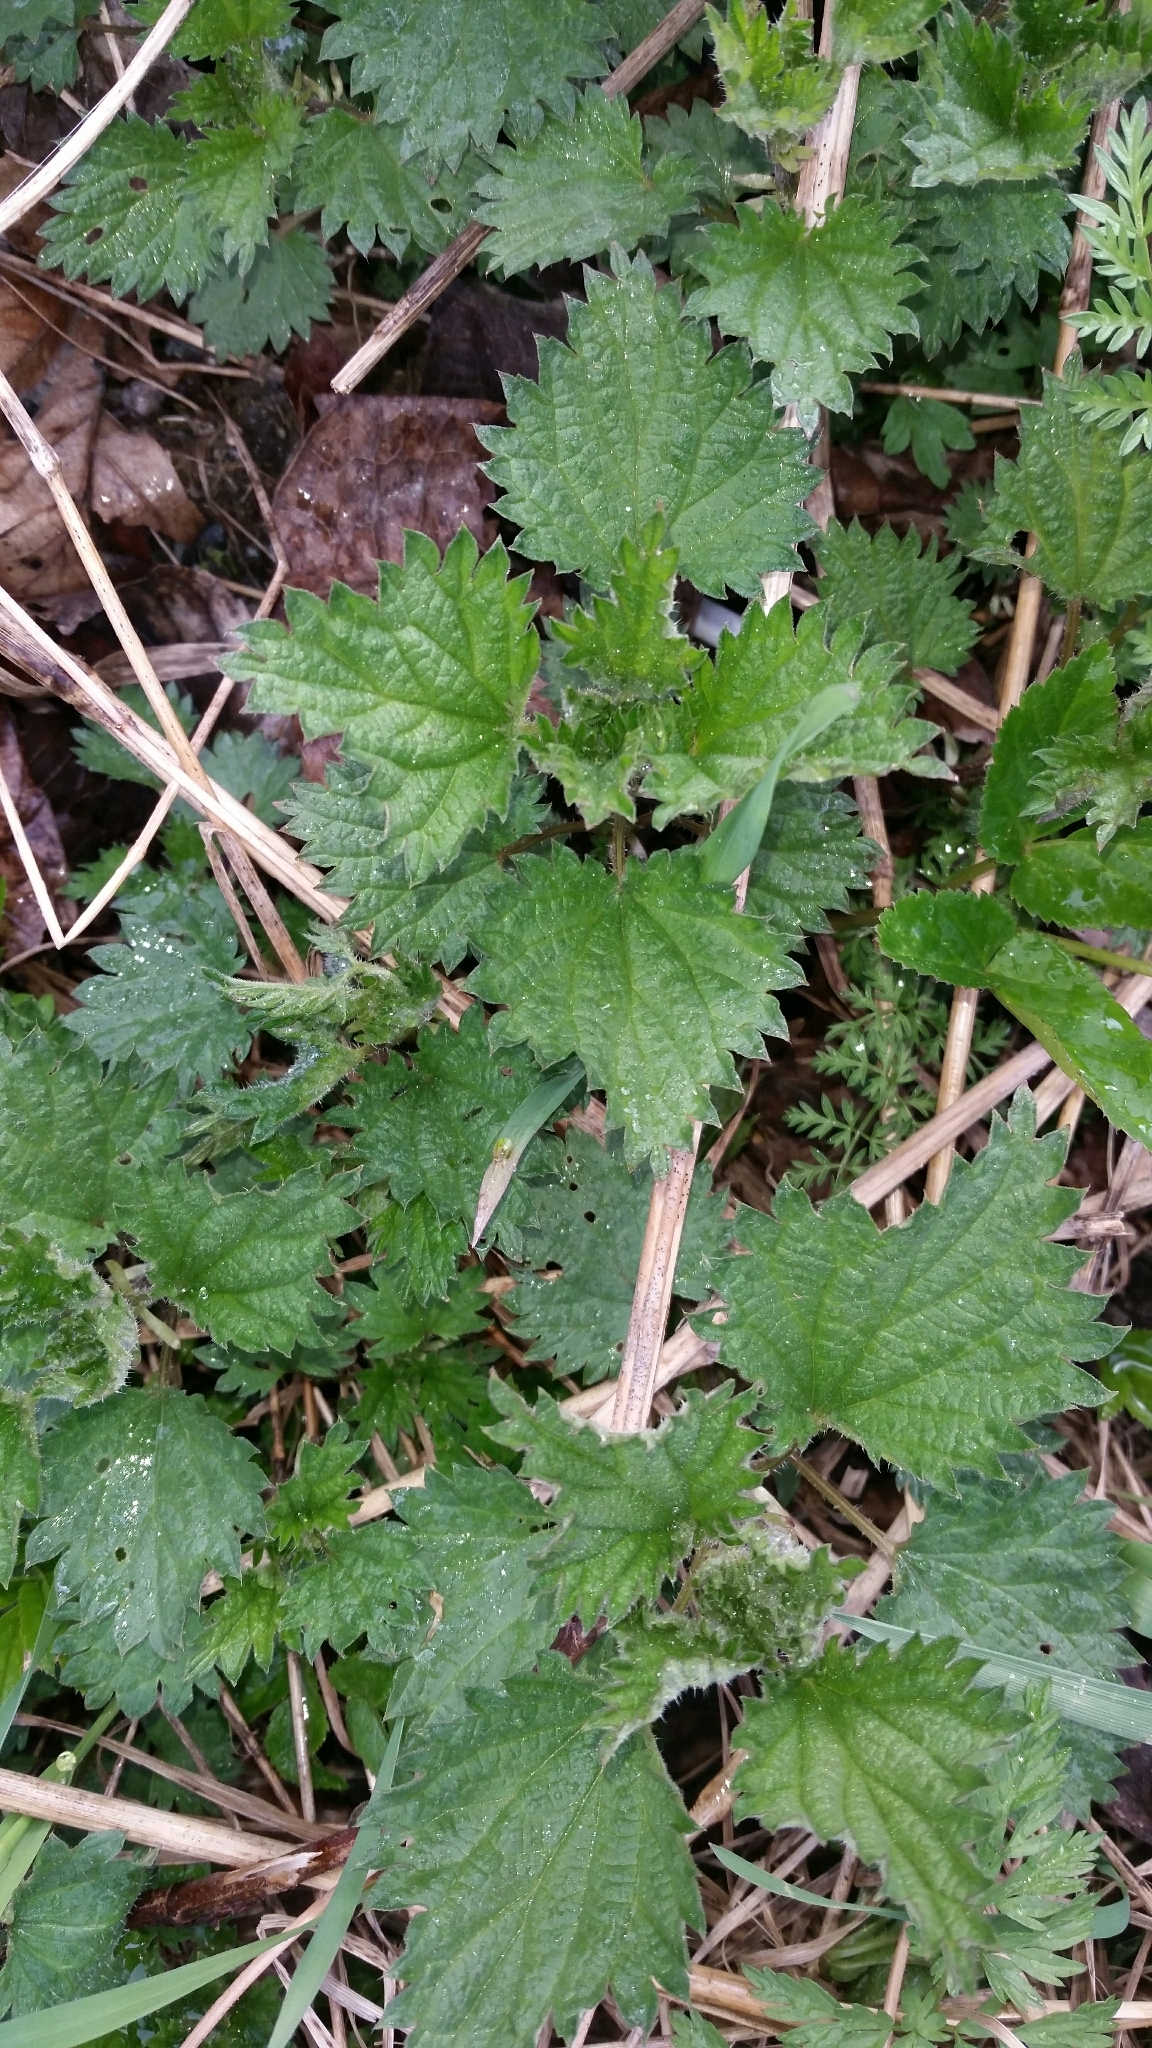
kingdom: Plantae
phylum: Tracheophyta
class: Magnoliopsida
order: Rosales
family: Urticaceae
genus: Urtica
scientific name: Urtica dioica
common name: Common nettle
